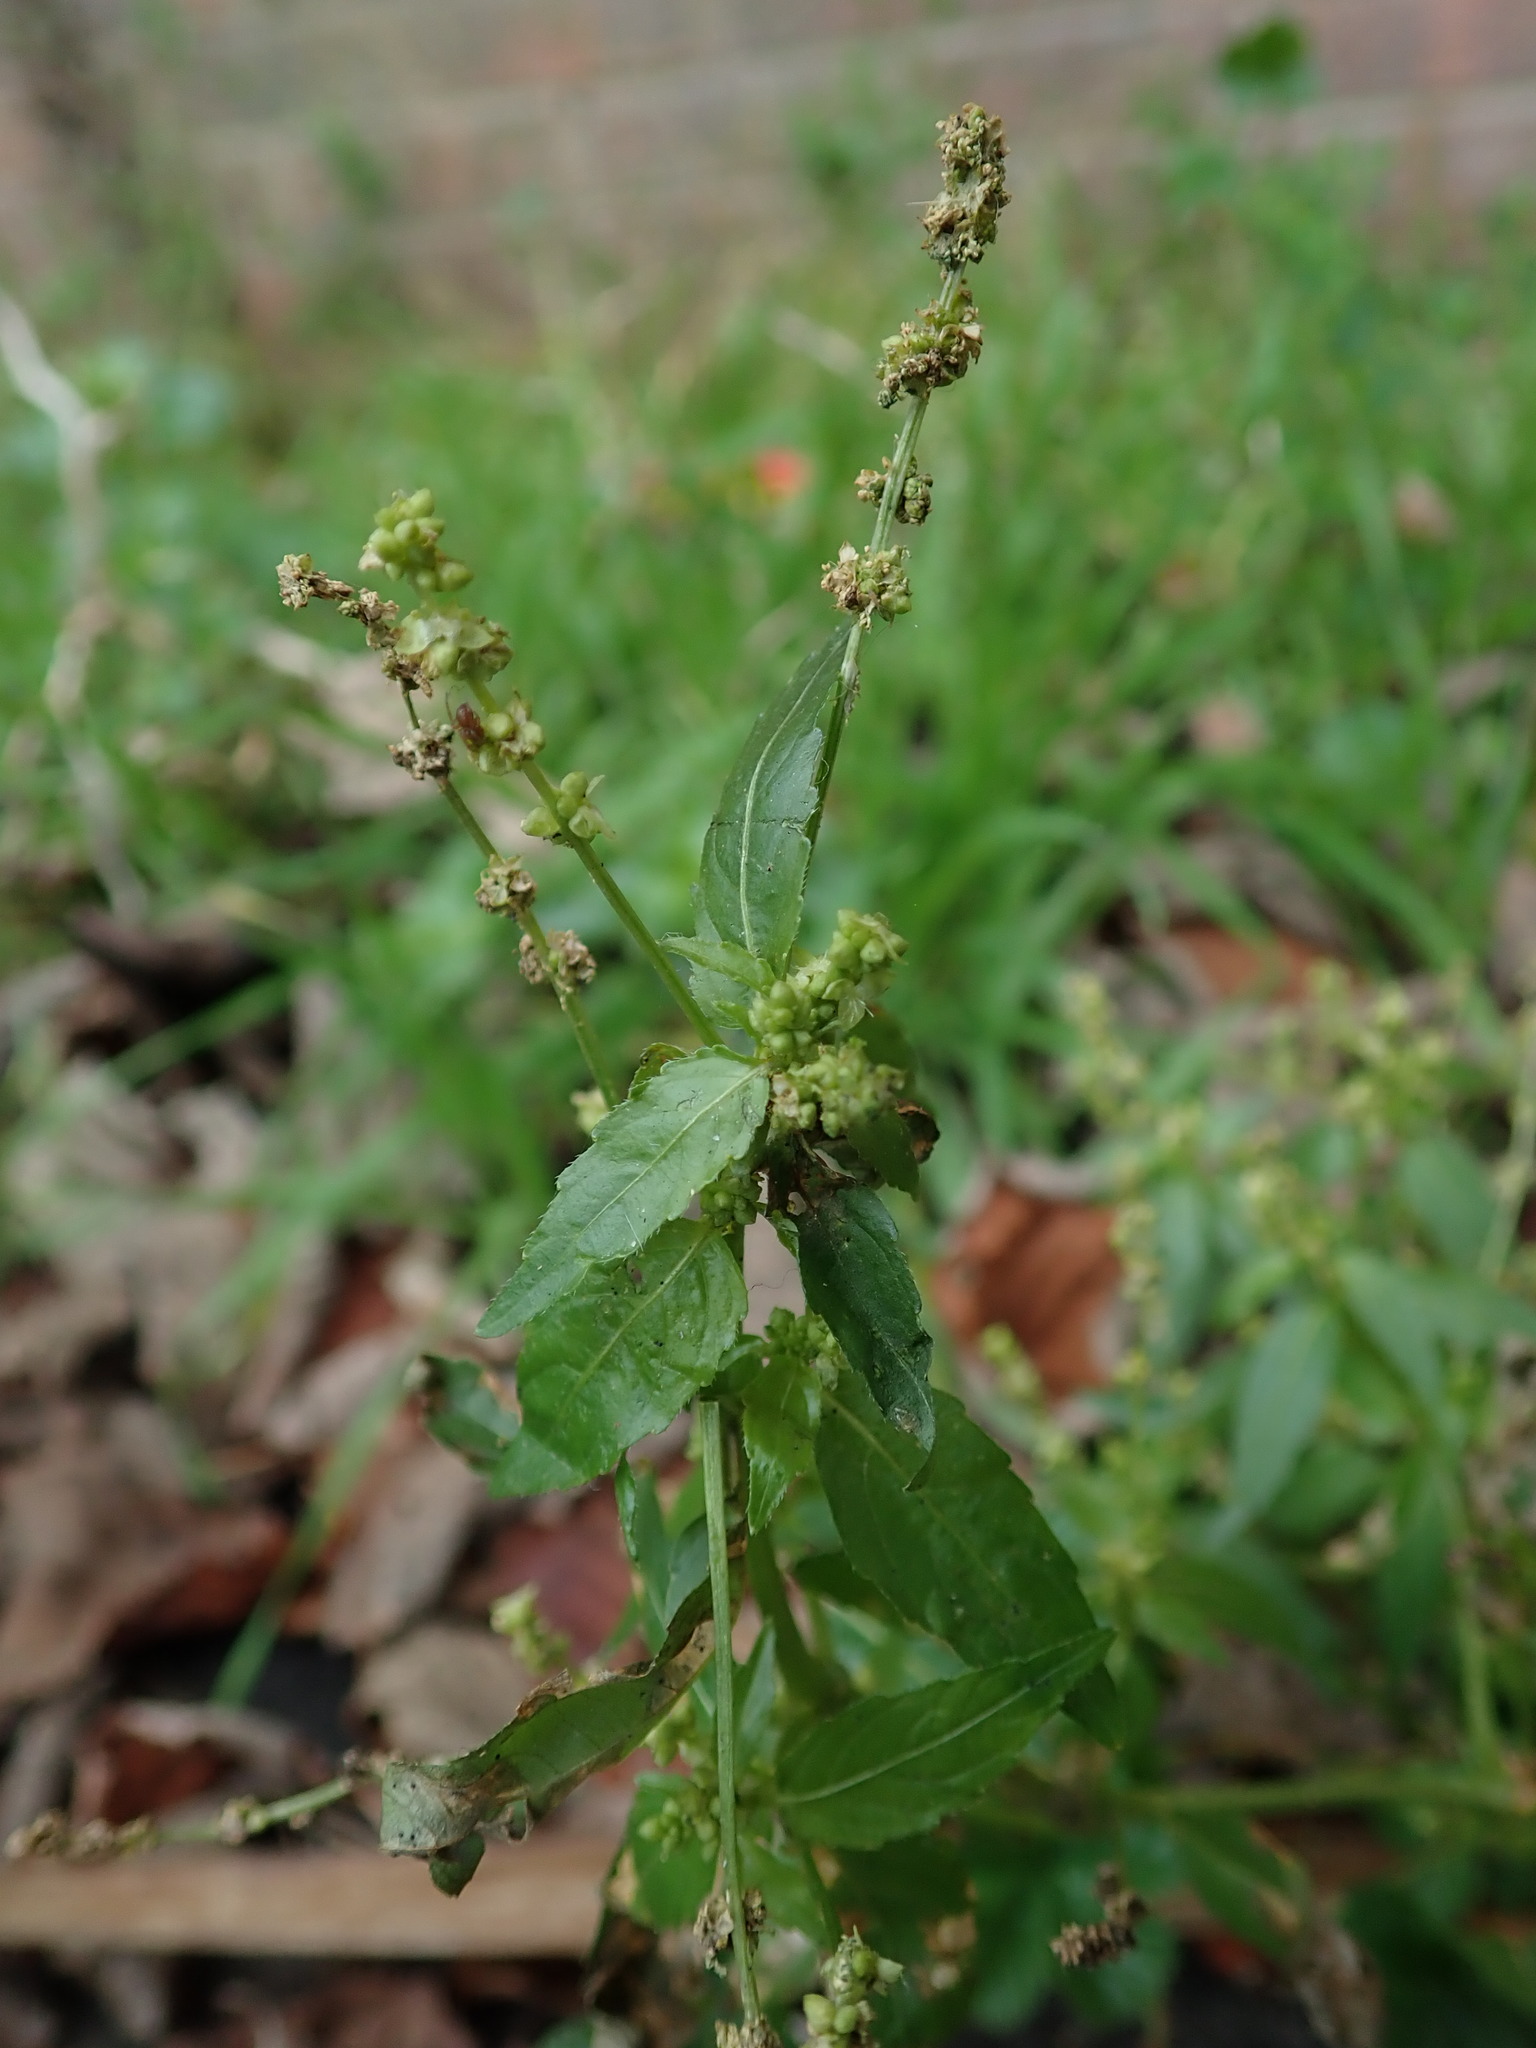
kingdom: Plantae
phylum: Tracheophyta
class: Magnoliopsida
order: Malpighiales
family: Euphorbiaceae
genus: Mercurialis
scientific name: Mercurialis annua
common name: Annual mercury
